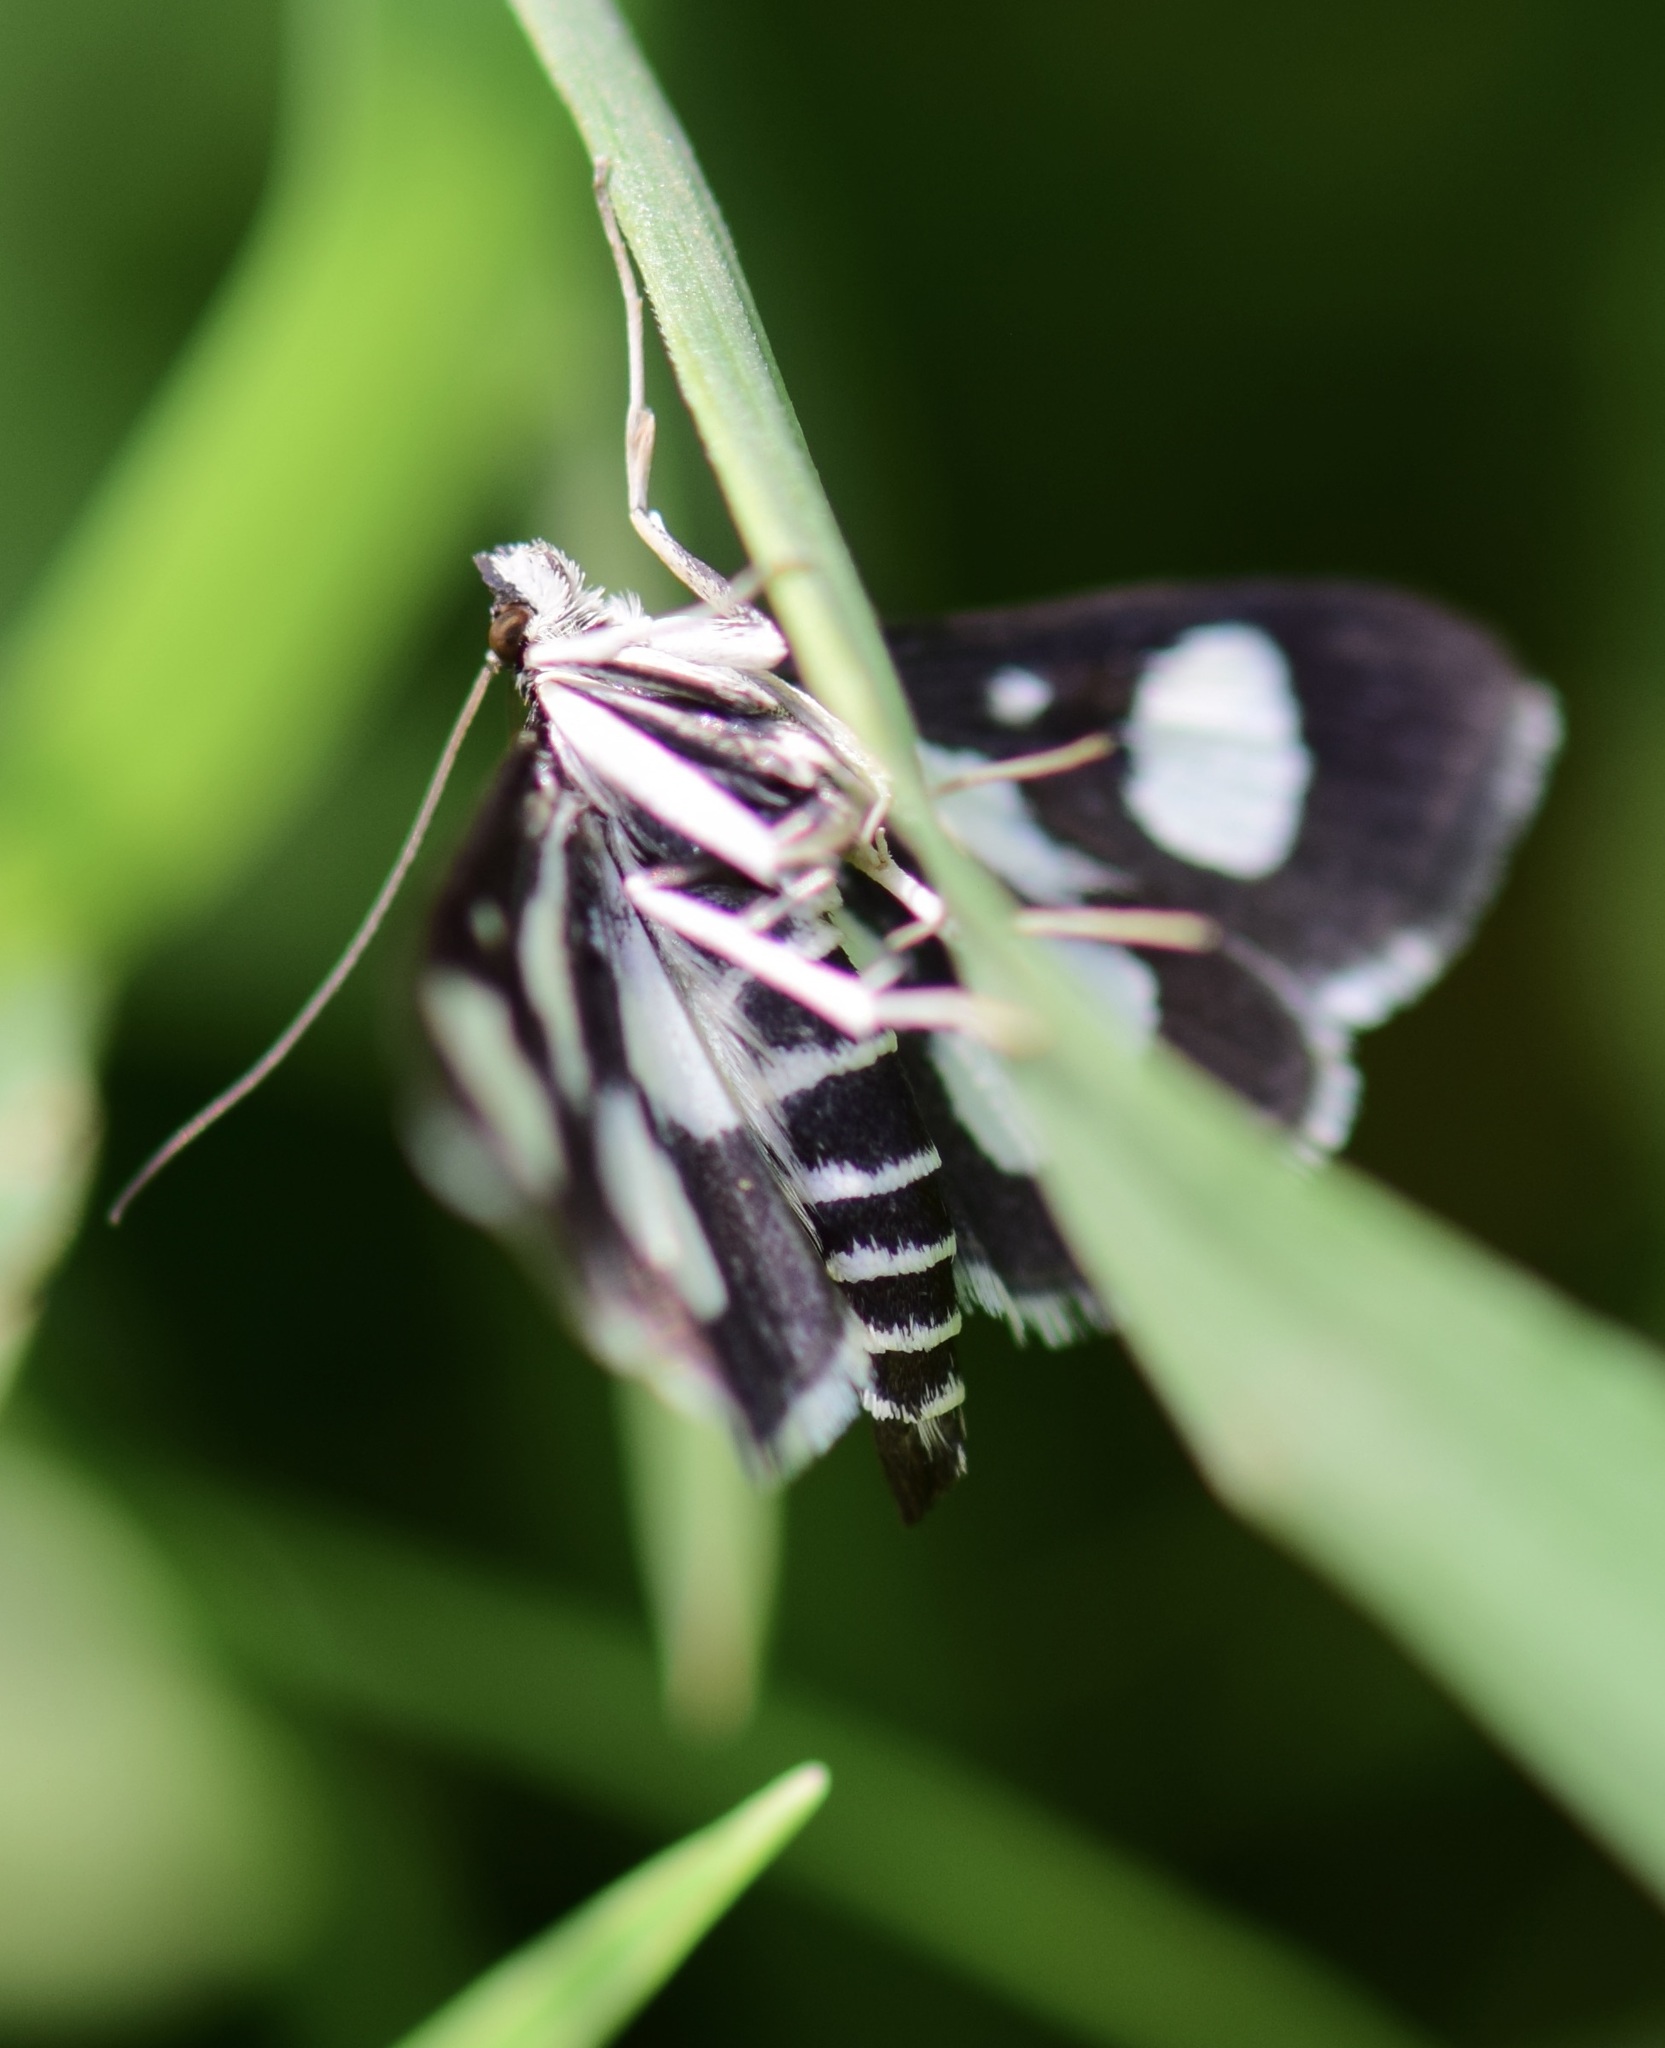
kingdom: Animalia
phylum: Arthropoda
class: Insecta
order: Lepidoptera
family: Crambidae
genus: Anania
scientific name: Anania funebris
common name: White-spotted sable moth
